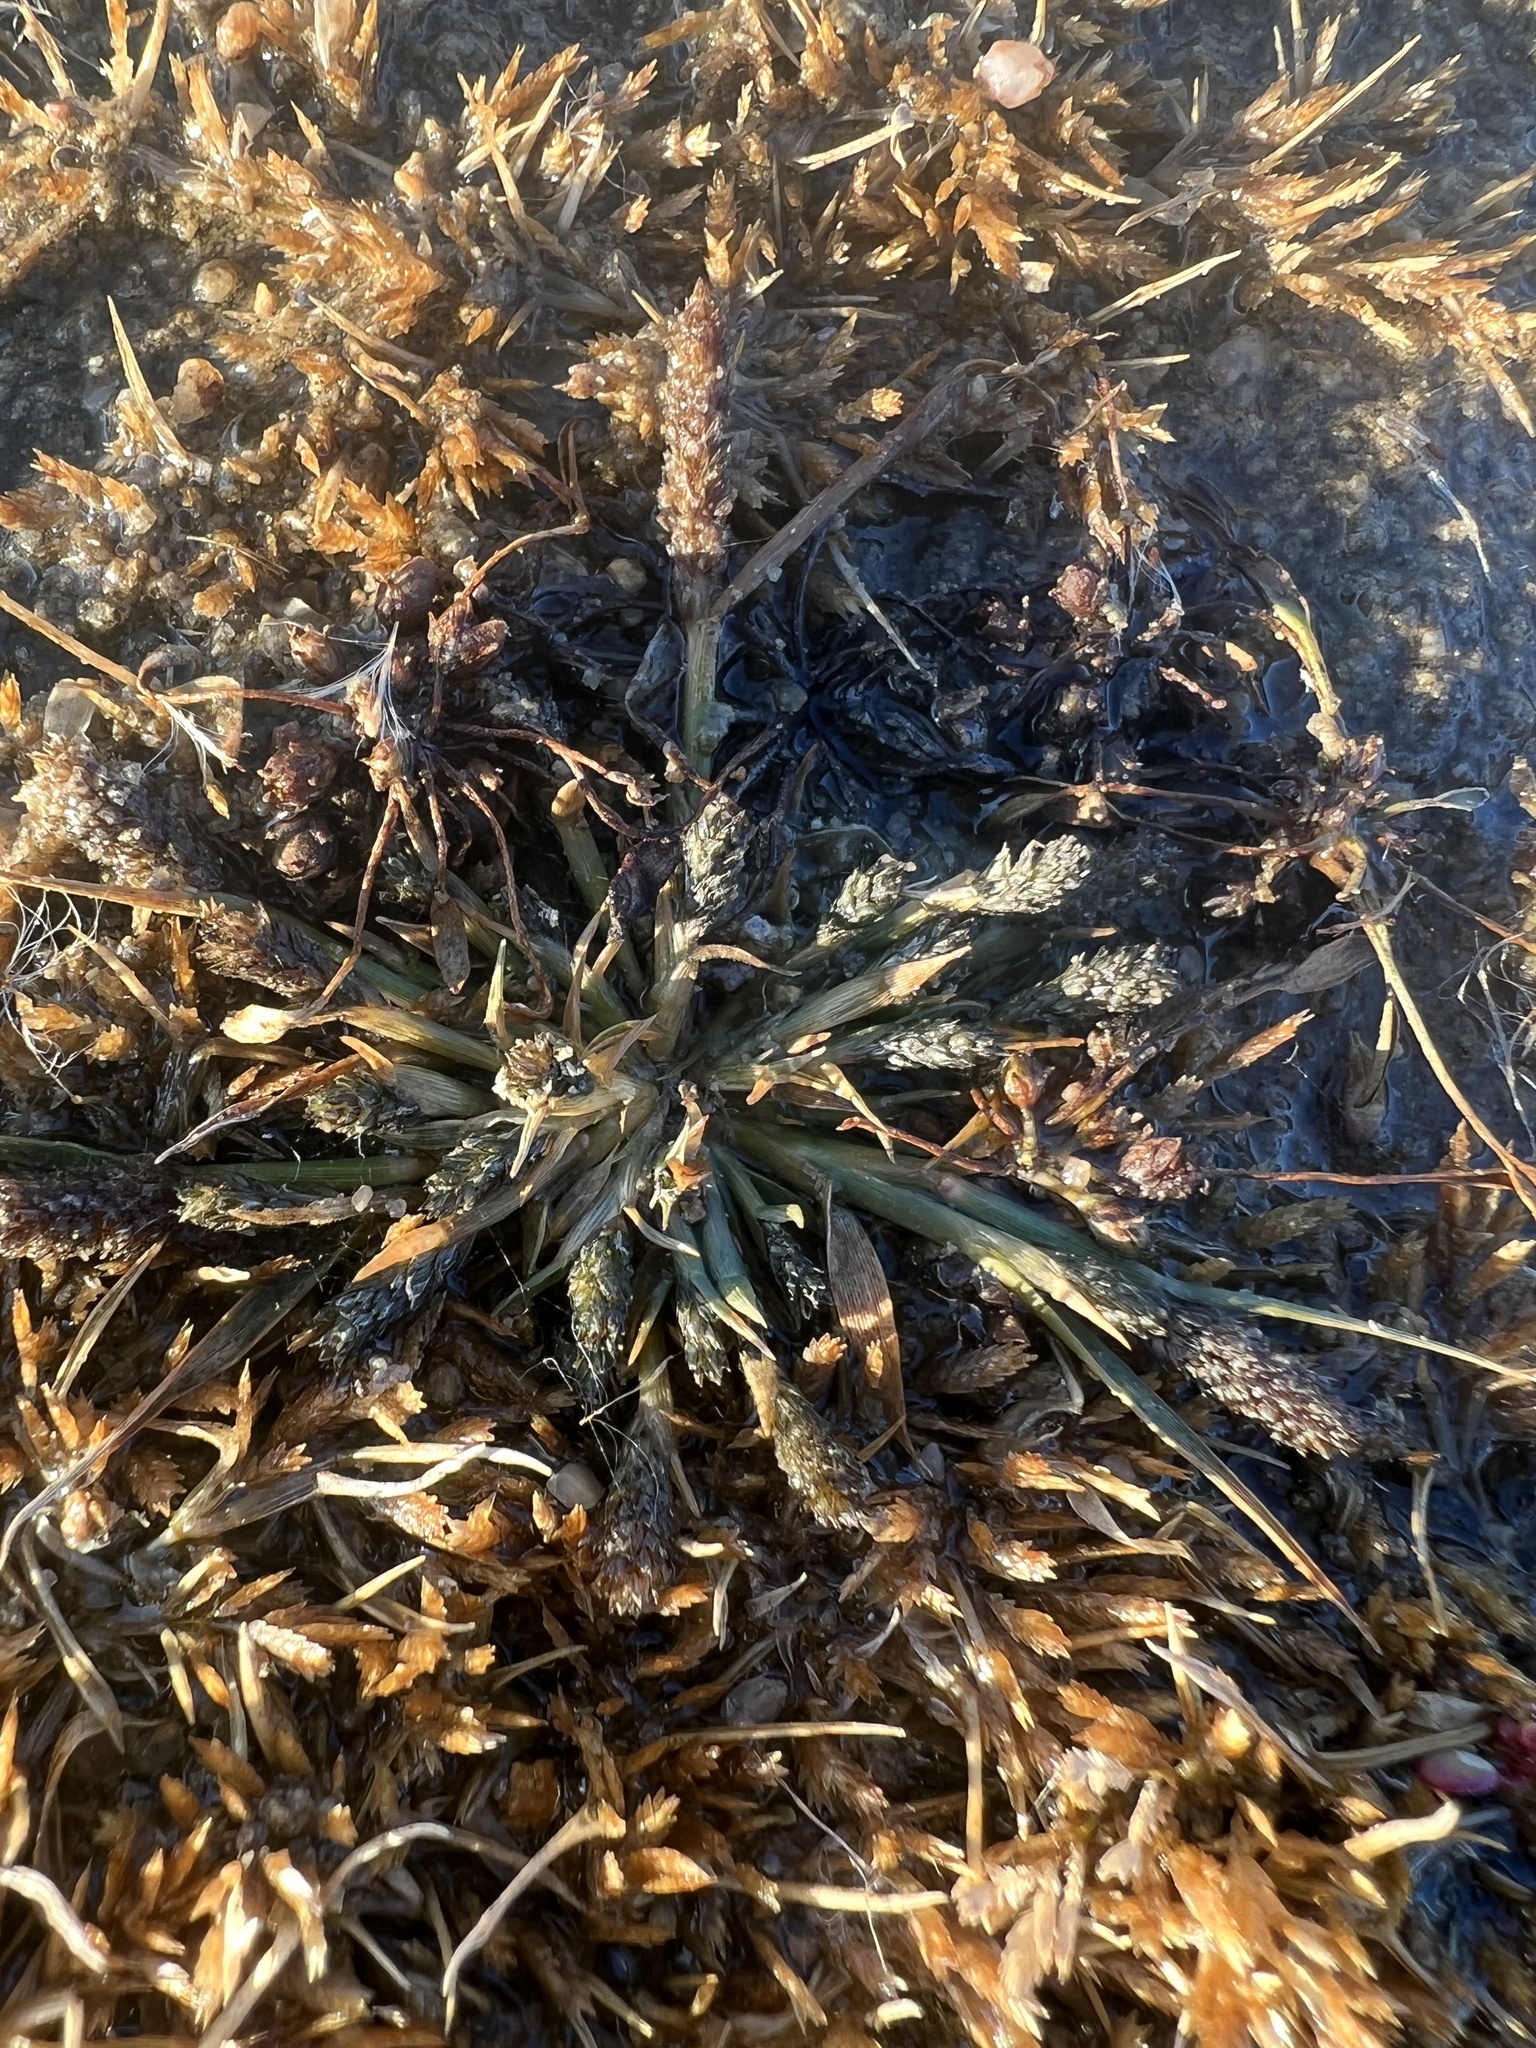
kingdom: Plantae
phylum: Tracheophyta
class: Liliopsida
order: Poales
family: Poaceae
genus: Sporobolus
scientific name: Sporobolus alopecuroides
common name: Foxtail pricklegrass
